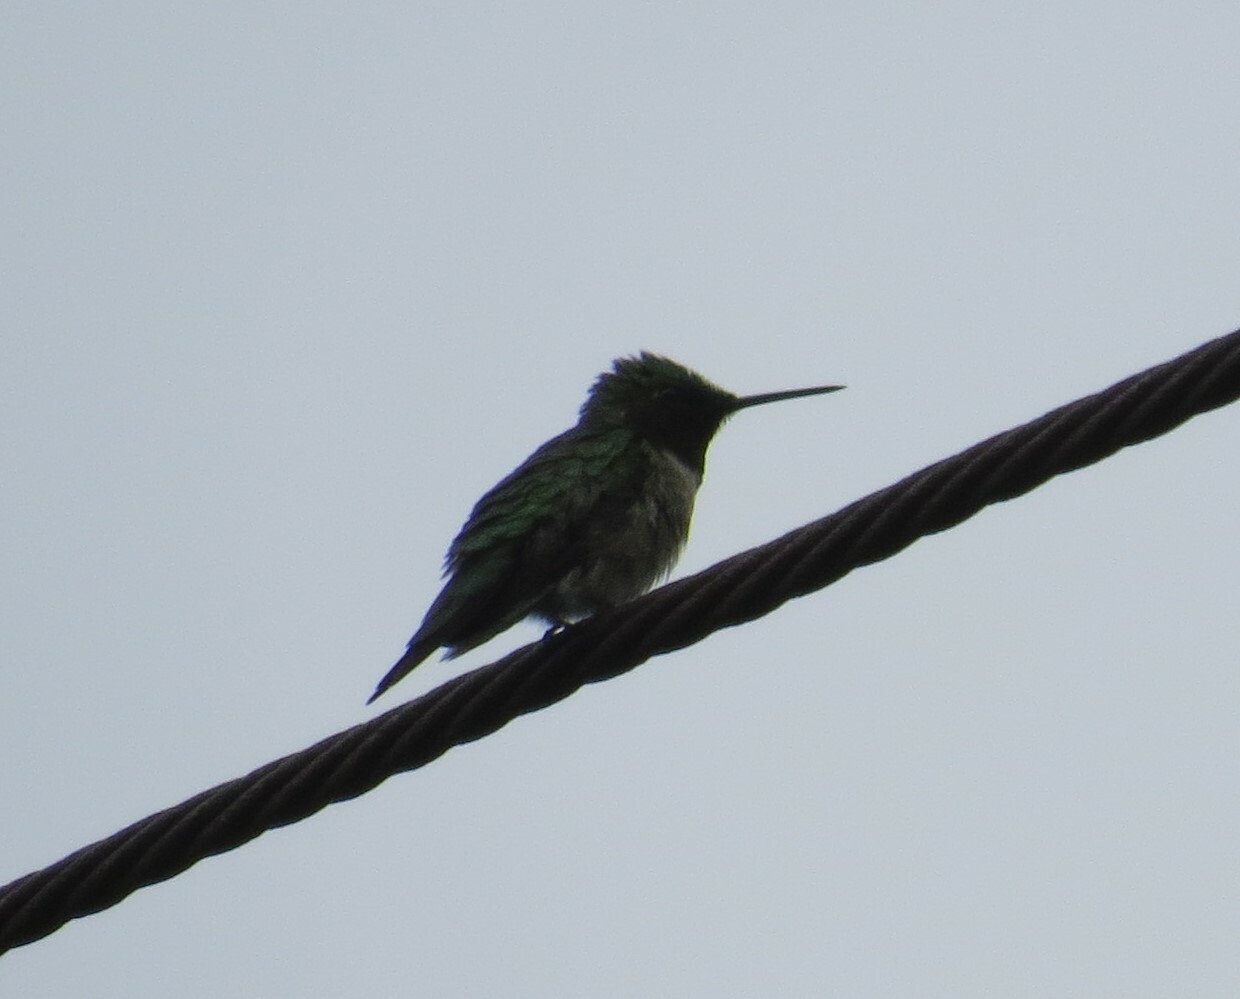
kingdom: Animalia
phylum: Chordata
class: Aves
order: Apodiformes
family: Trochilidae
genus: Archilochus
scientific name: Archilochus colubris
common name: Ruby-throated hummingbird
